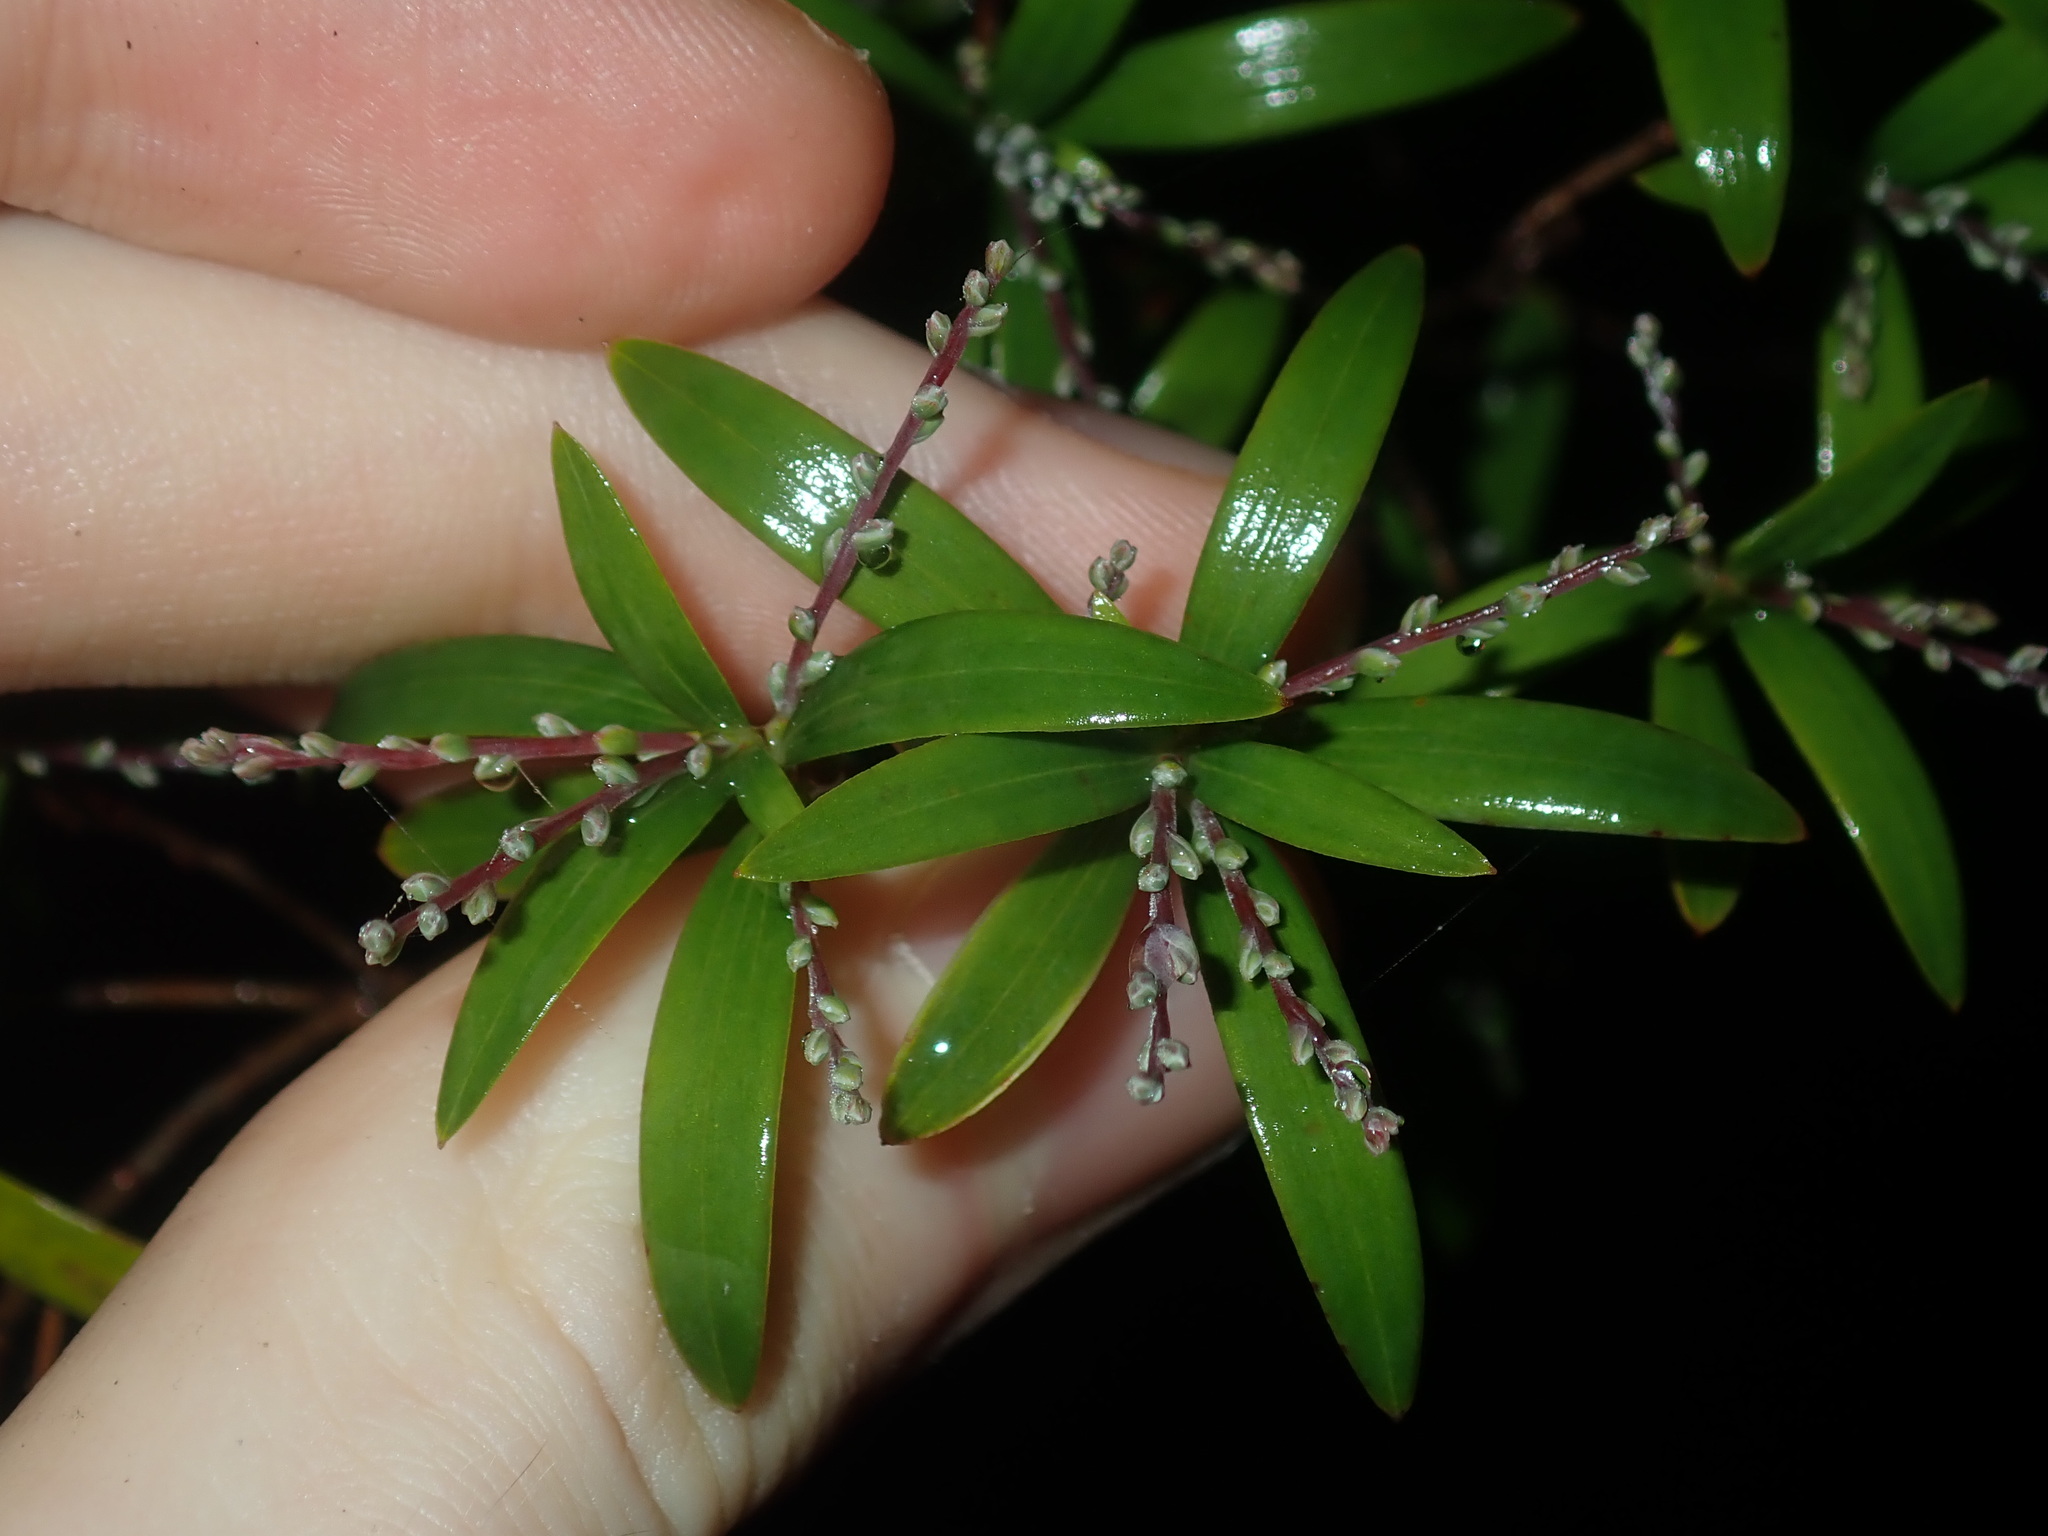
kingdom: Plantae
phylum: Tracheophyta
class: Magnoliopsida
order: Ericales
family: Ericaceae
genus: Leucopogon
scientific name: Leucopogon lanceolatus
